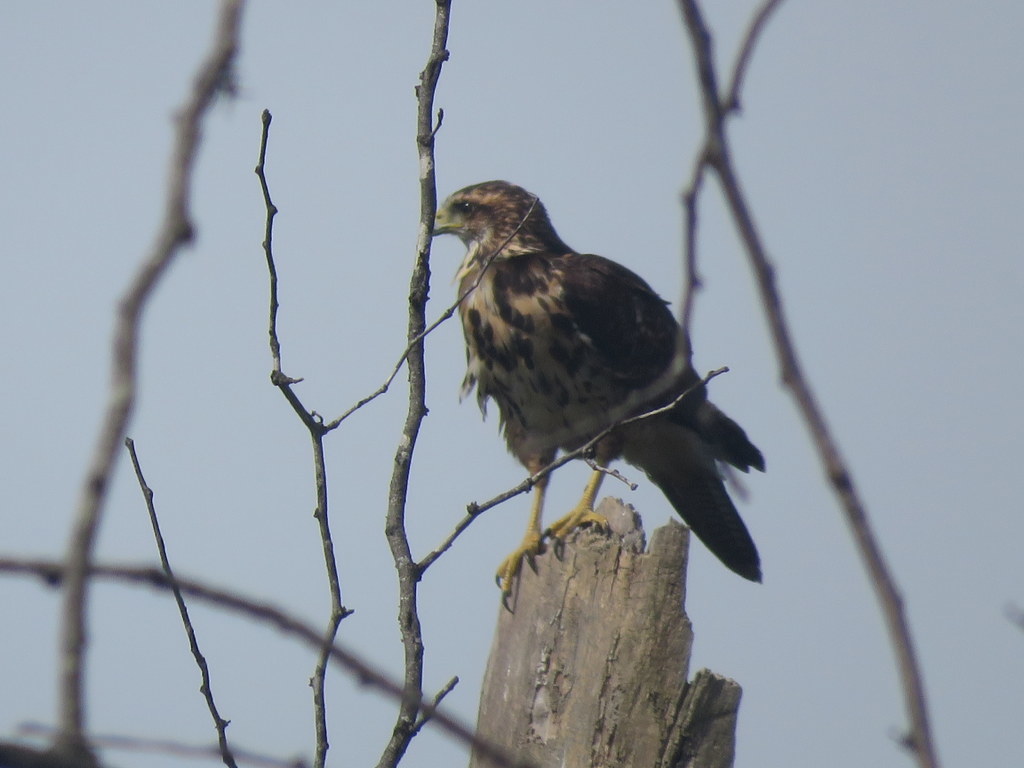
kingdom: Animalia
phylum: Chordata
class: Aves
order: Accipitriformes
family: Accipitridae
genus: Parabuteo
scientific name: Parabuteo unicinctus
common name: Harris's hawk
